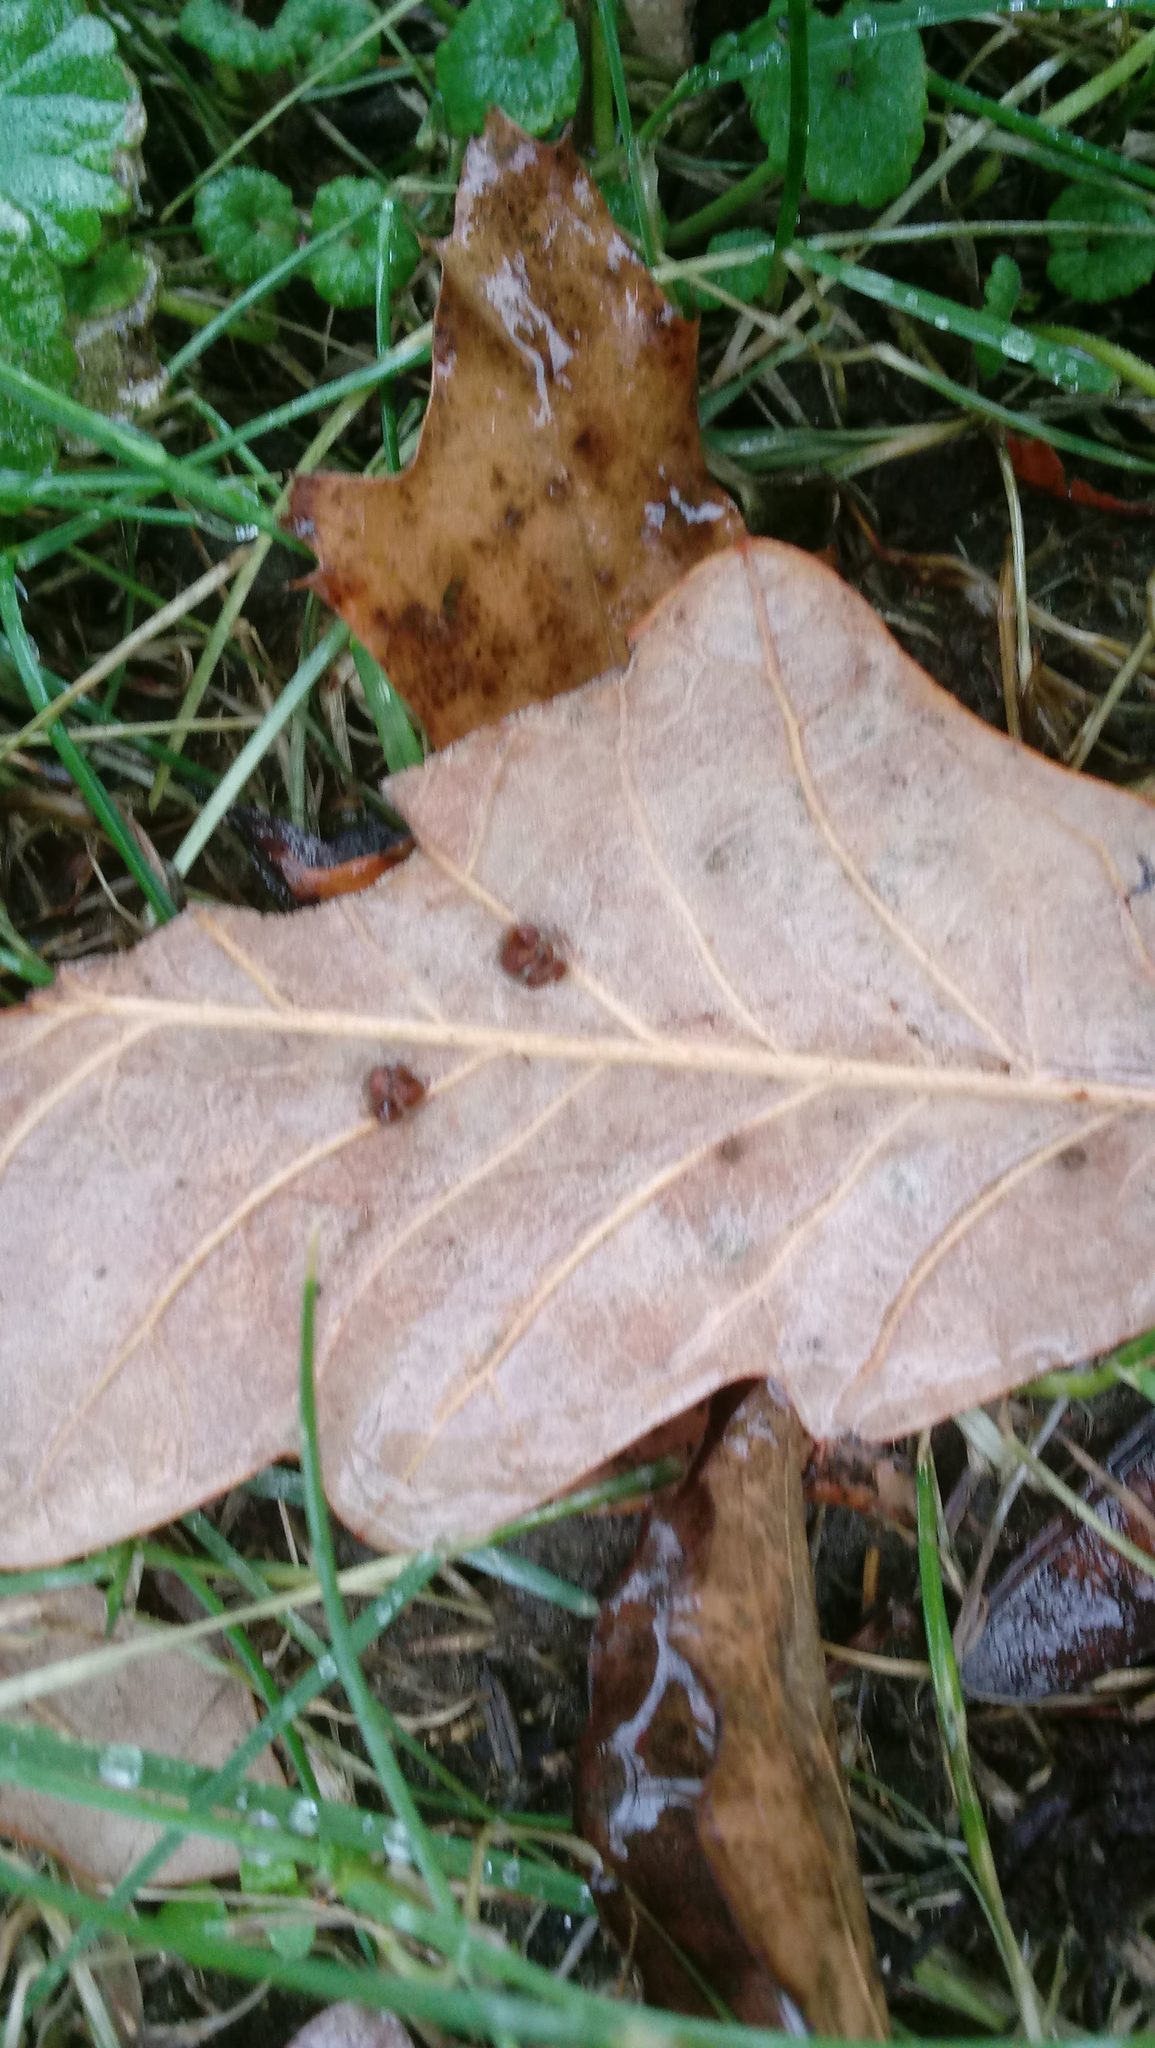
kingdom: Animalia
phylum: Arthropoda
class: Insecta
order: Hymenoptera
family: Cynipidae
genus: Andricus
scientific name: Andricus Druon ignotum
